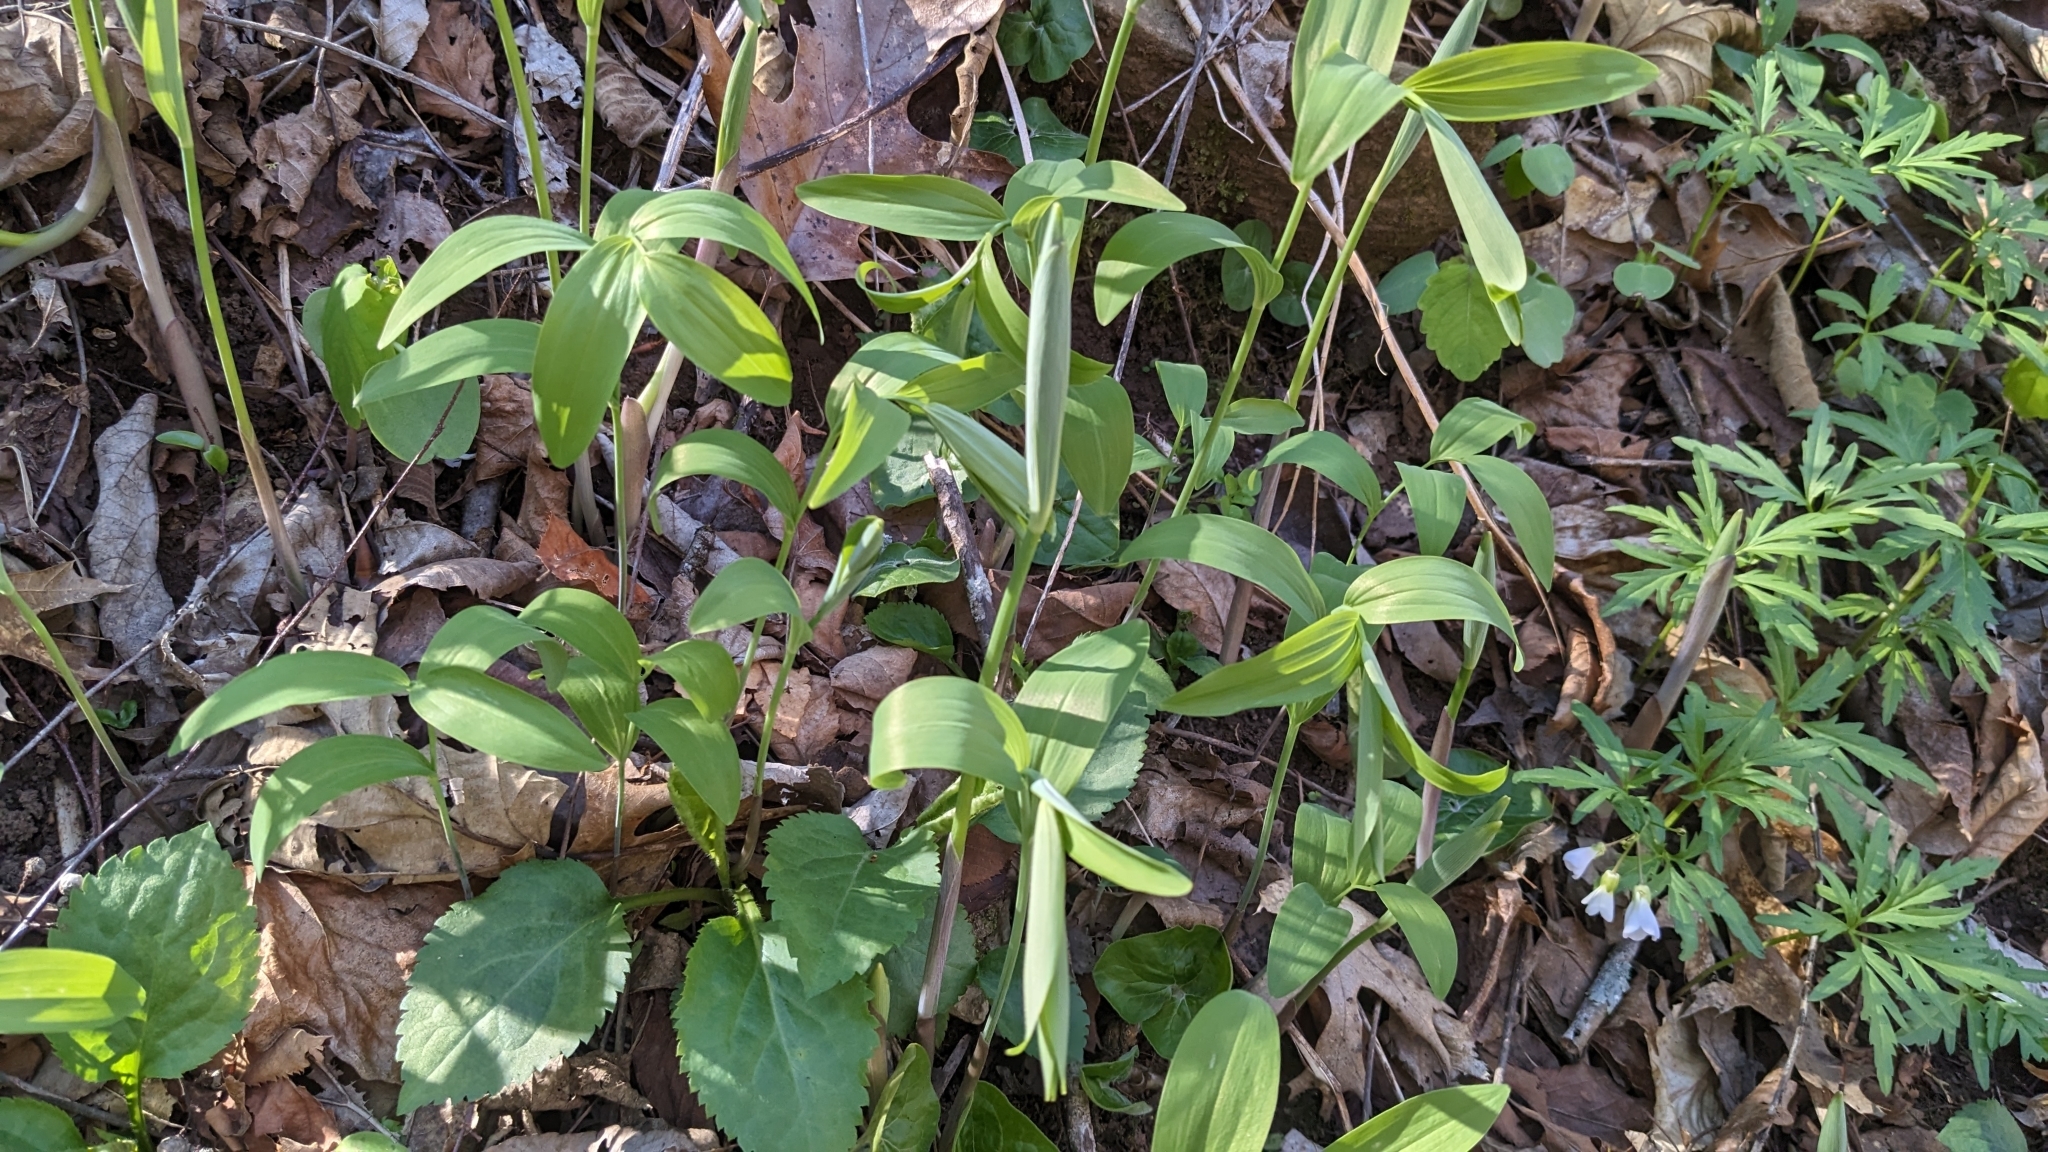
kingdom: Plantae
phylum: Tracheophyta
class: Liliopsida
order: Asparagales
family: Asparagaceae
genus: Polygonatum
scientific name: Polygonatum biflorum
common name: American solomon's-seal
